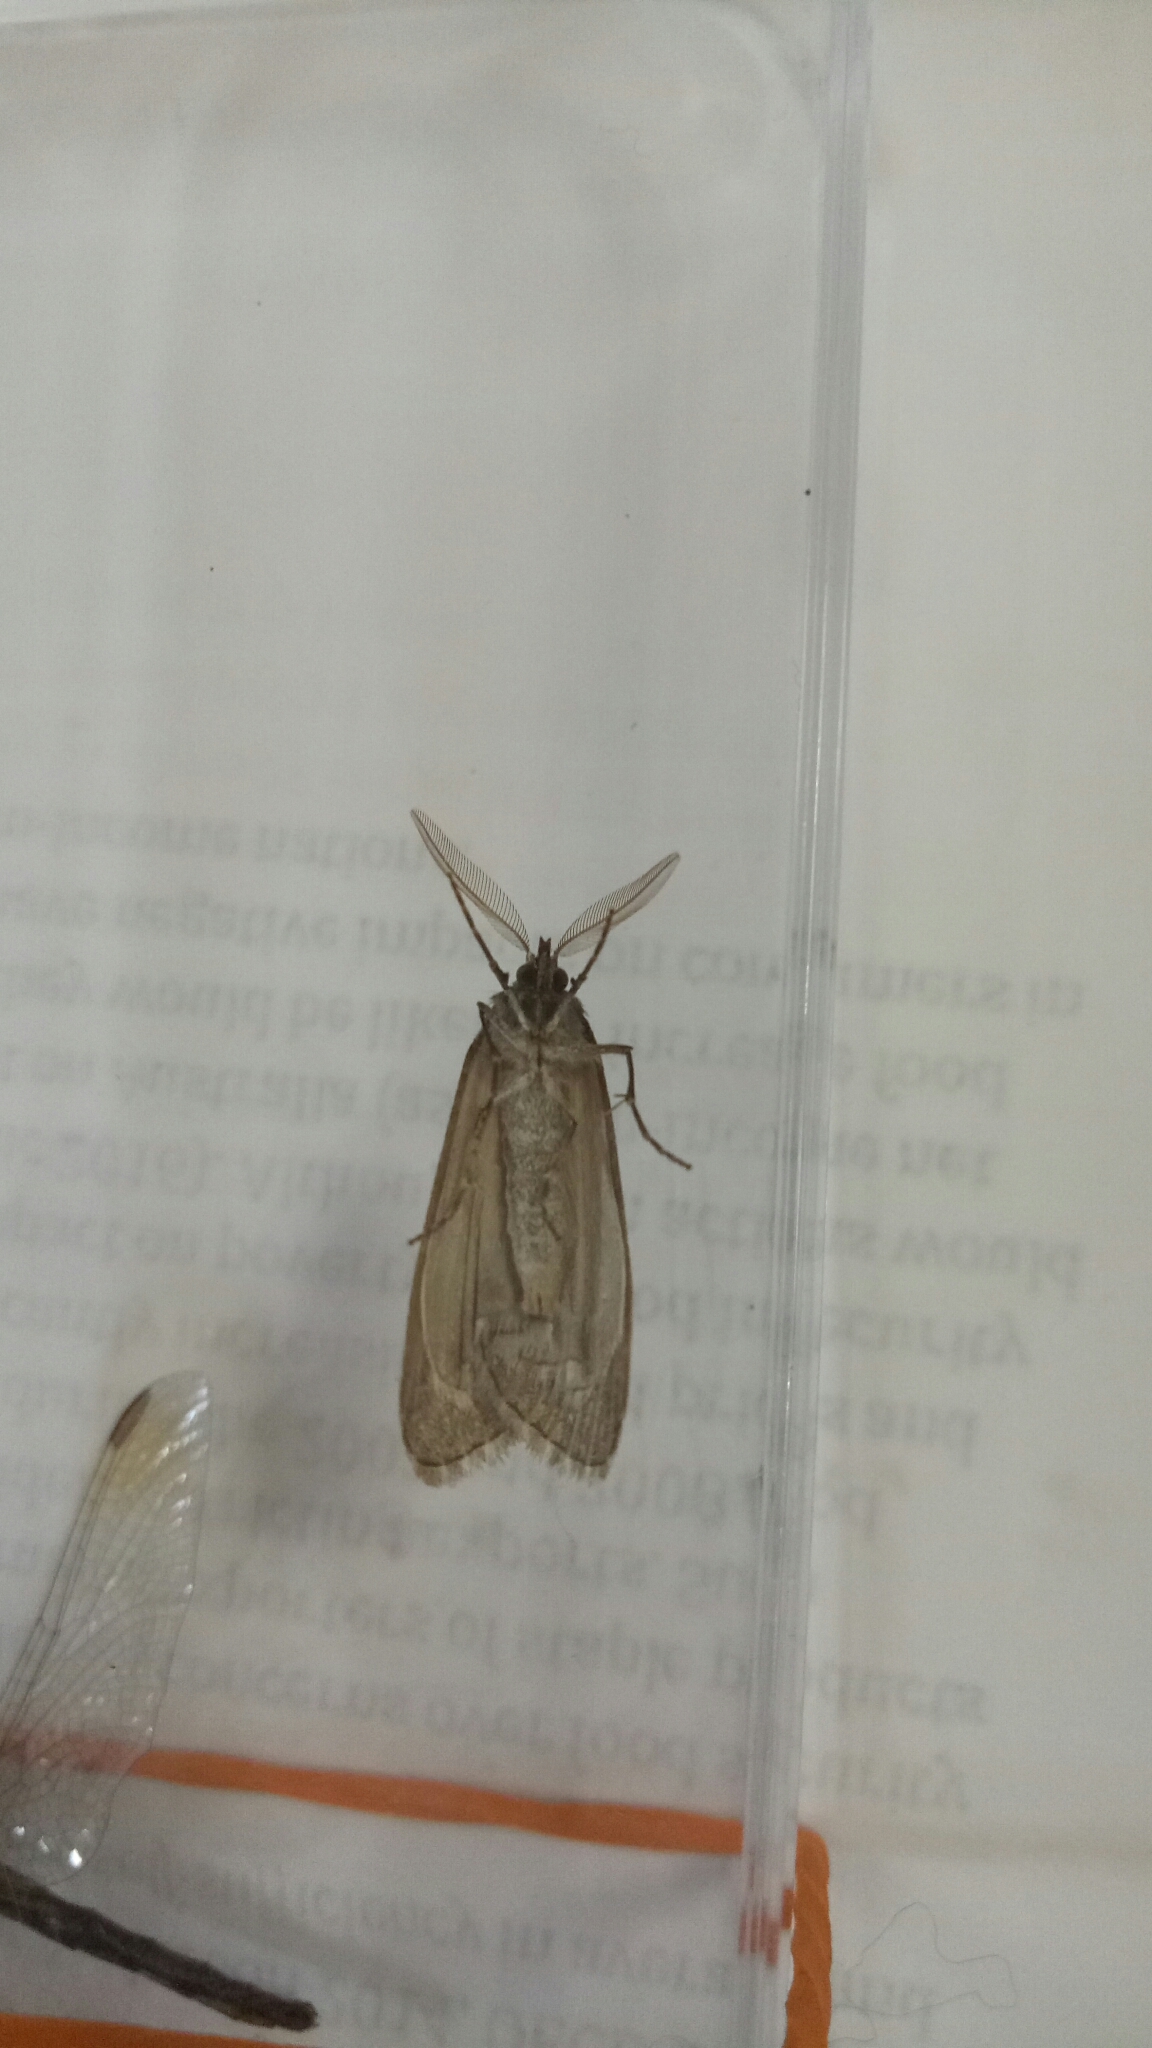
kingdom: Animalia
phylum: Arthropoda
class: Insecta
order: Lepidoptera
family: Geometridae
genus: Ciampa
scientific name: Ciampa arietaria
